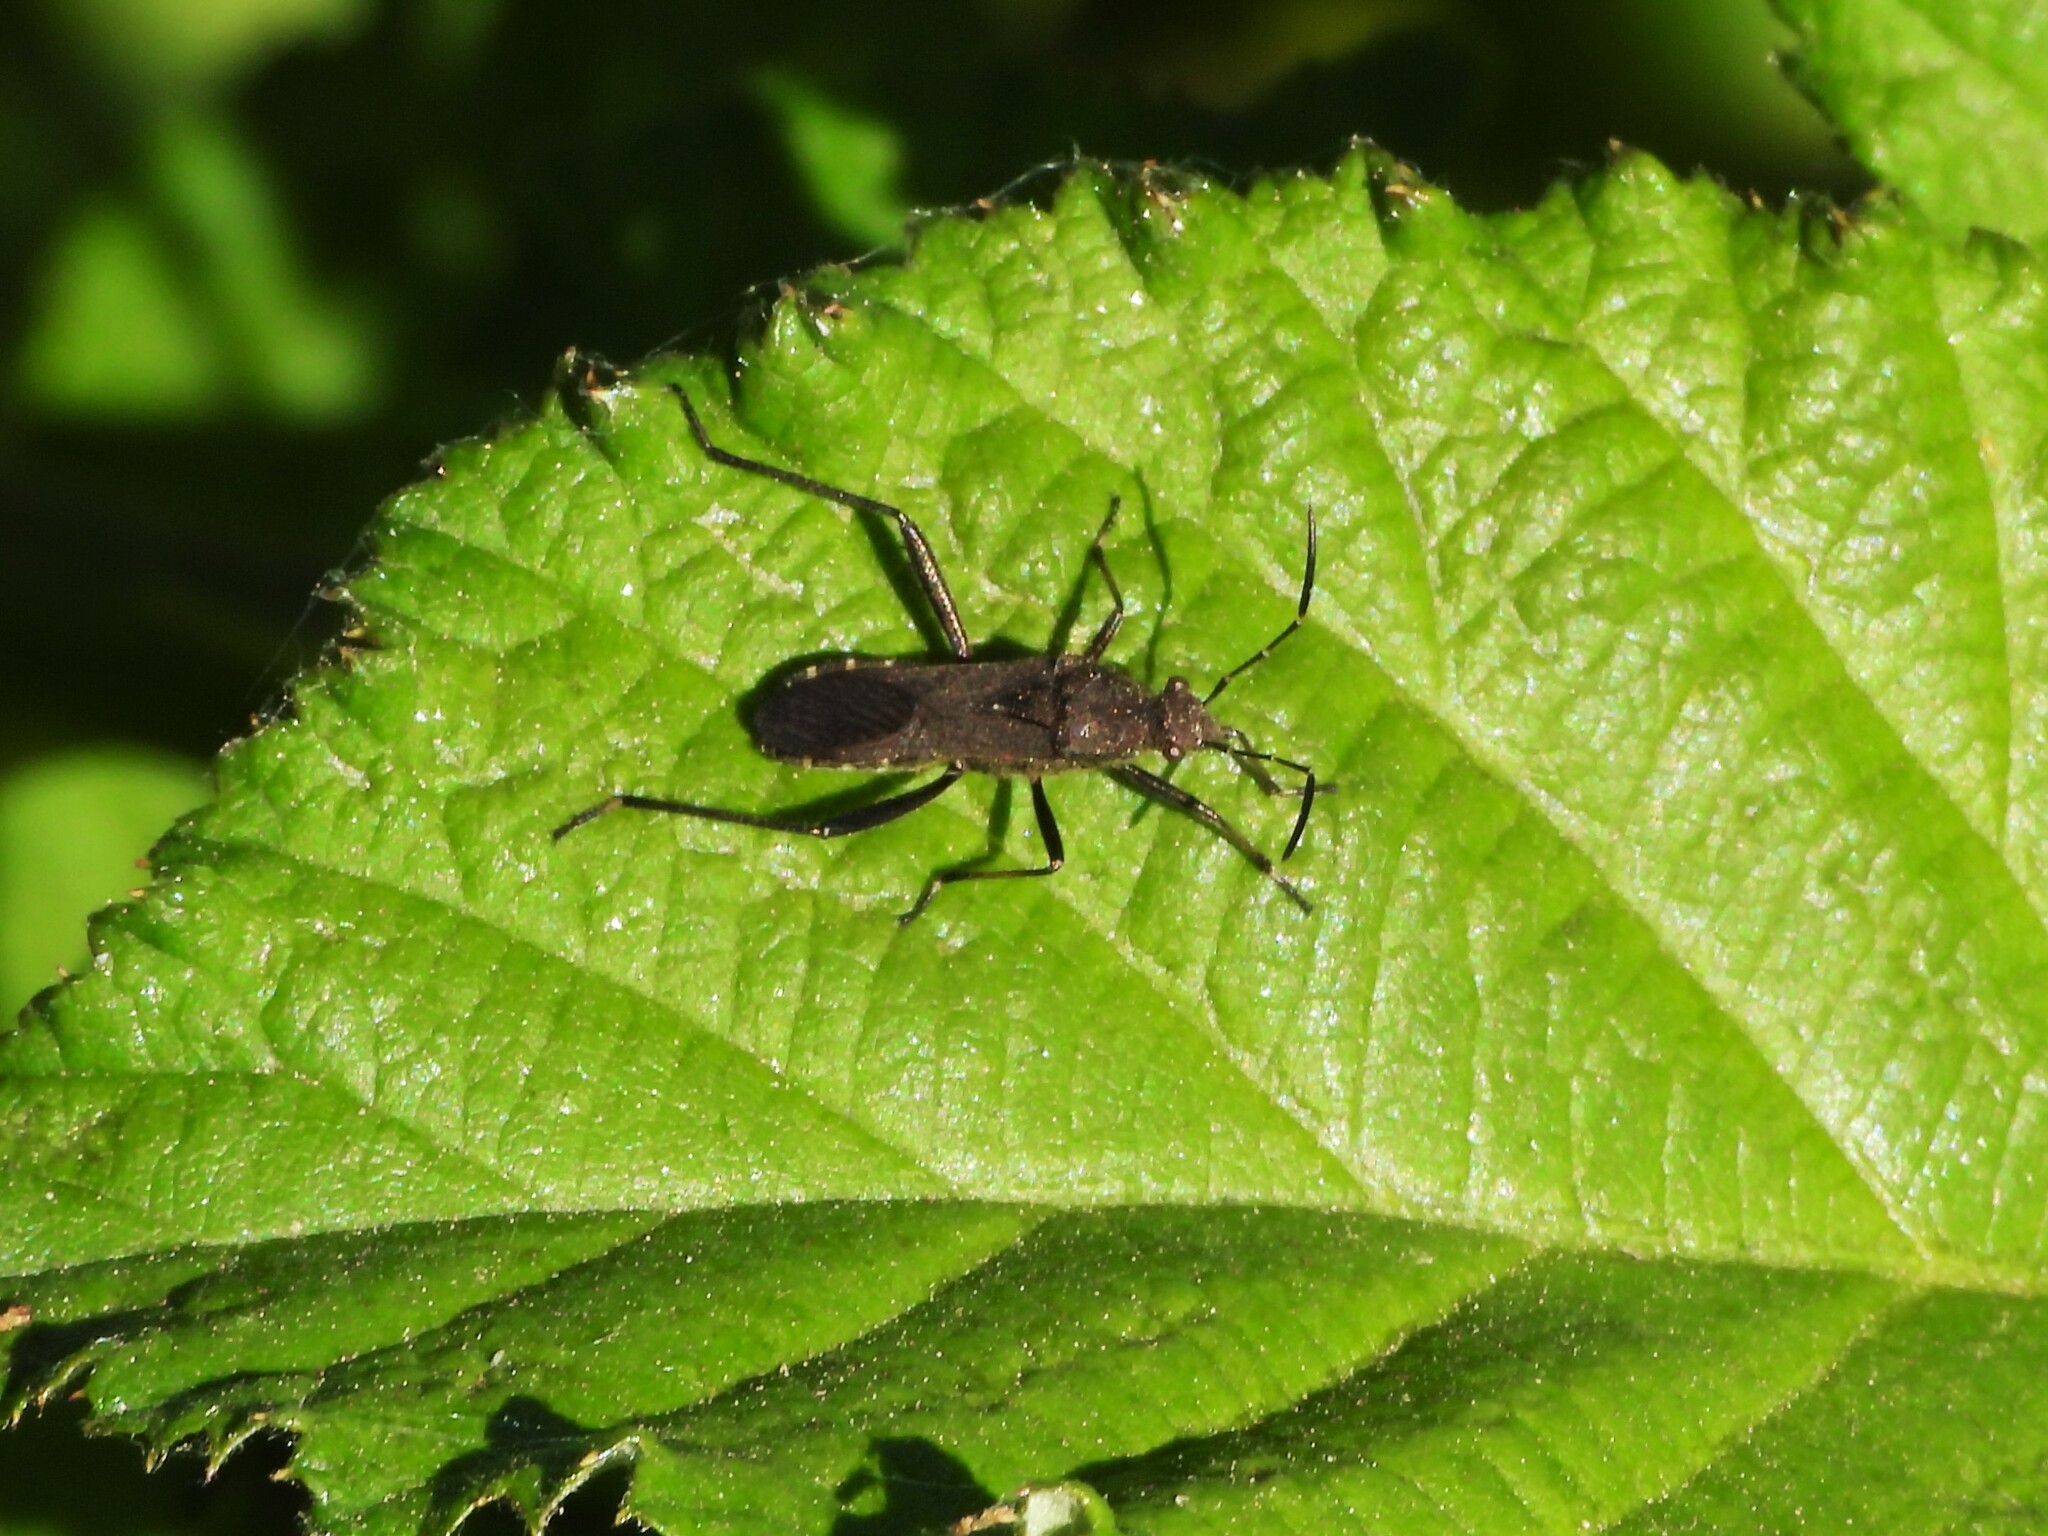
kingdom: Animalia
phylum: Arthropoda
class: Insecta
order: Hemiptera
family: Alydidae
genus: Alydus
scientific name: Alydus calcaratus
